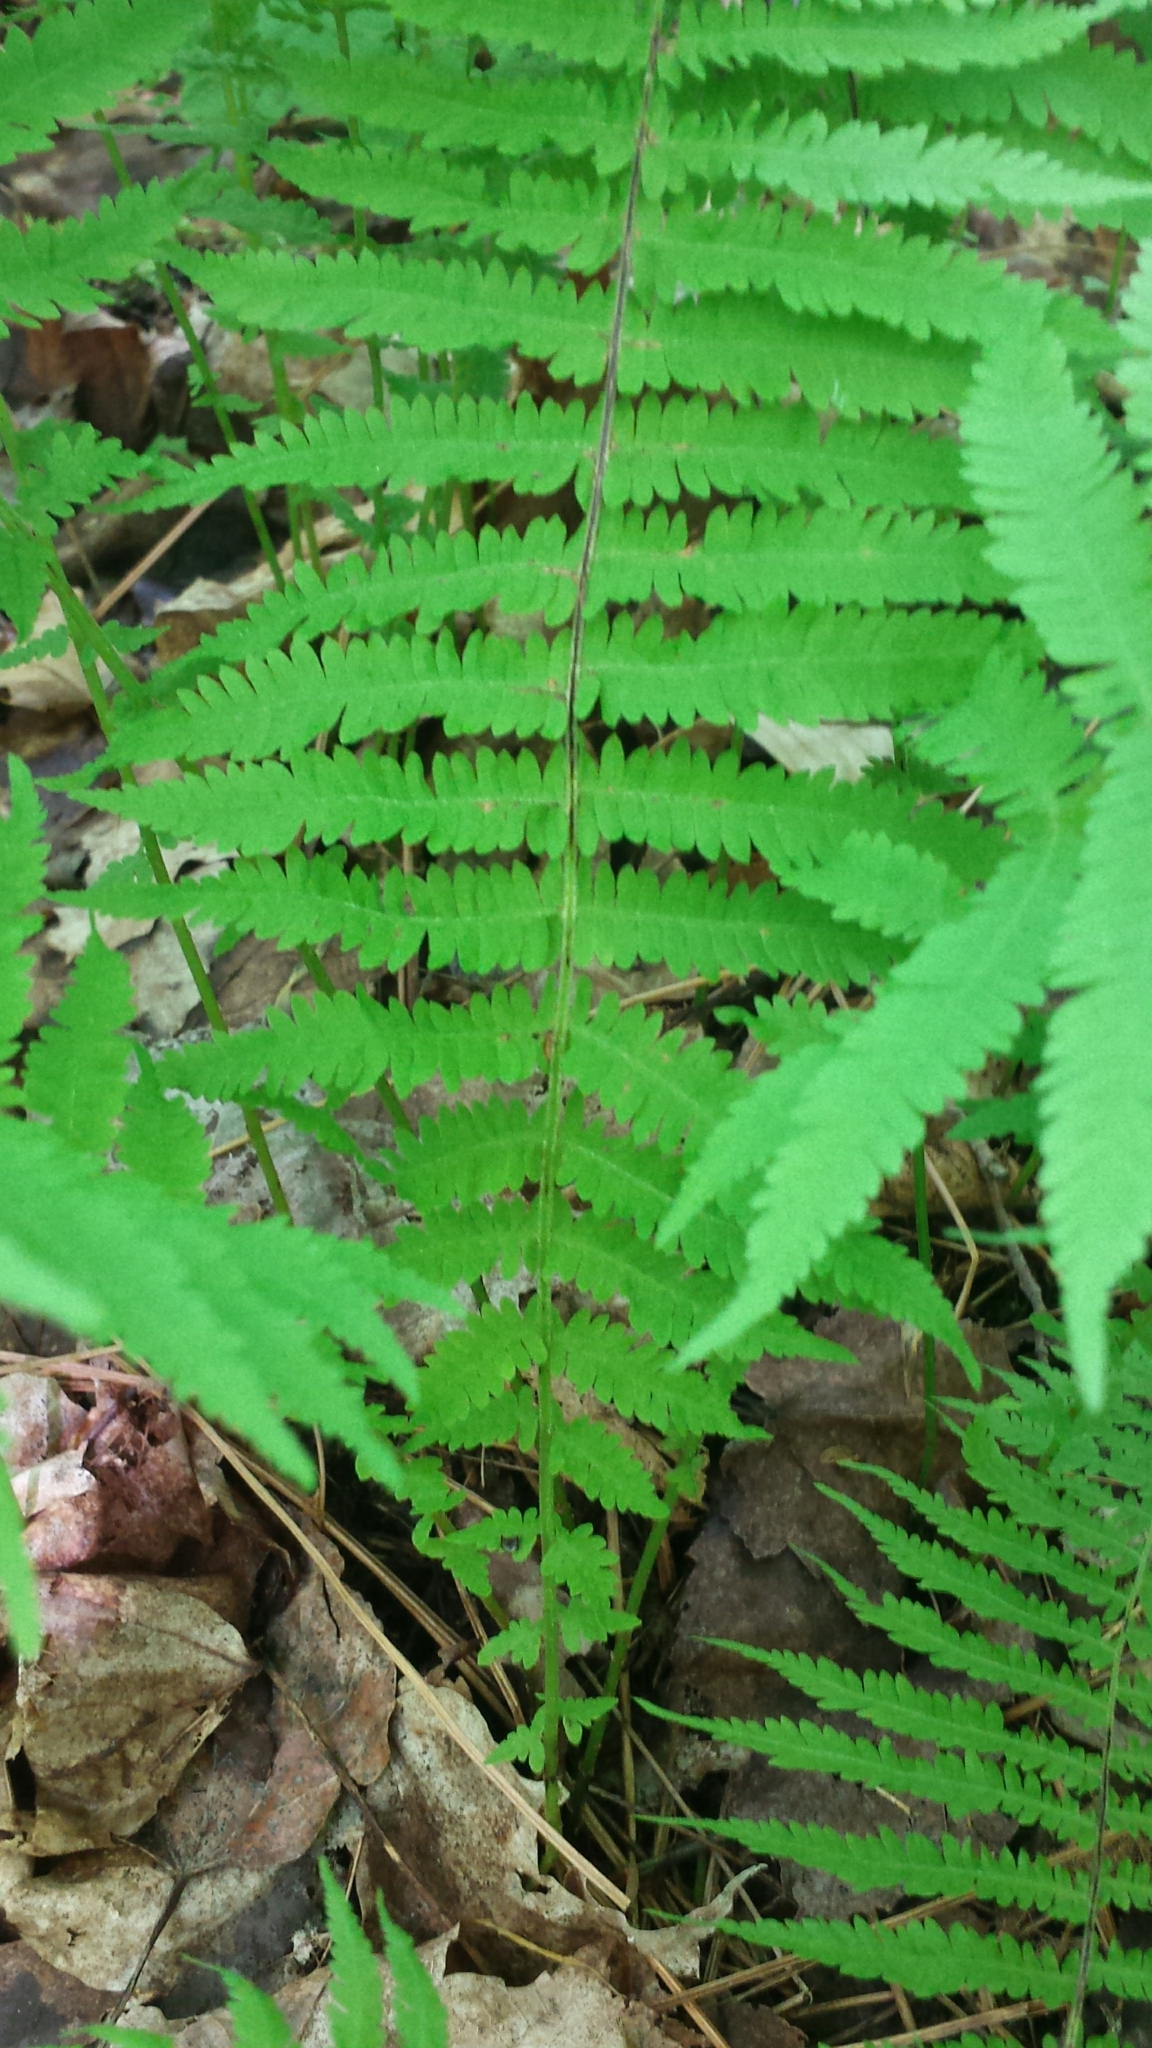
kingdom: Plantae
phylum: Tracheophyta
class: Polypodiopsida
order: Polypodiales
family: Thelypteridaceae
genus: Amauropelta
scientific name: Amauropelta noveboracensis
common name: New york fern
